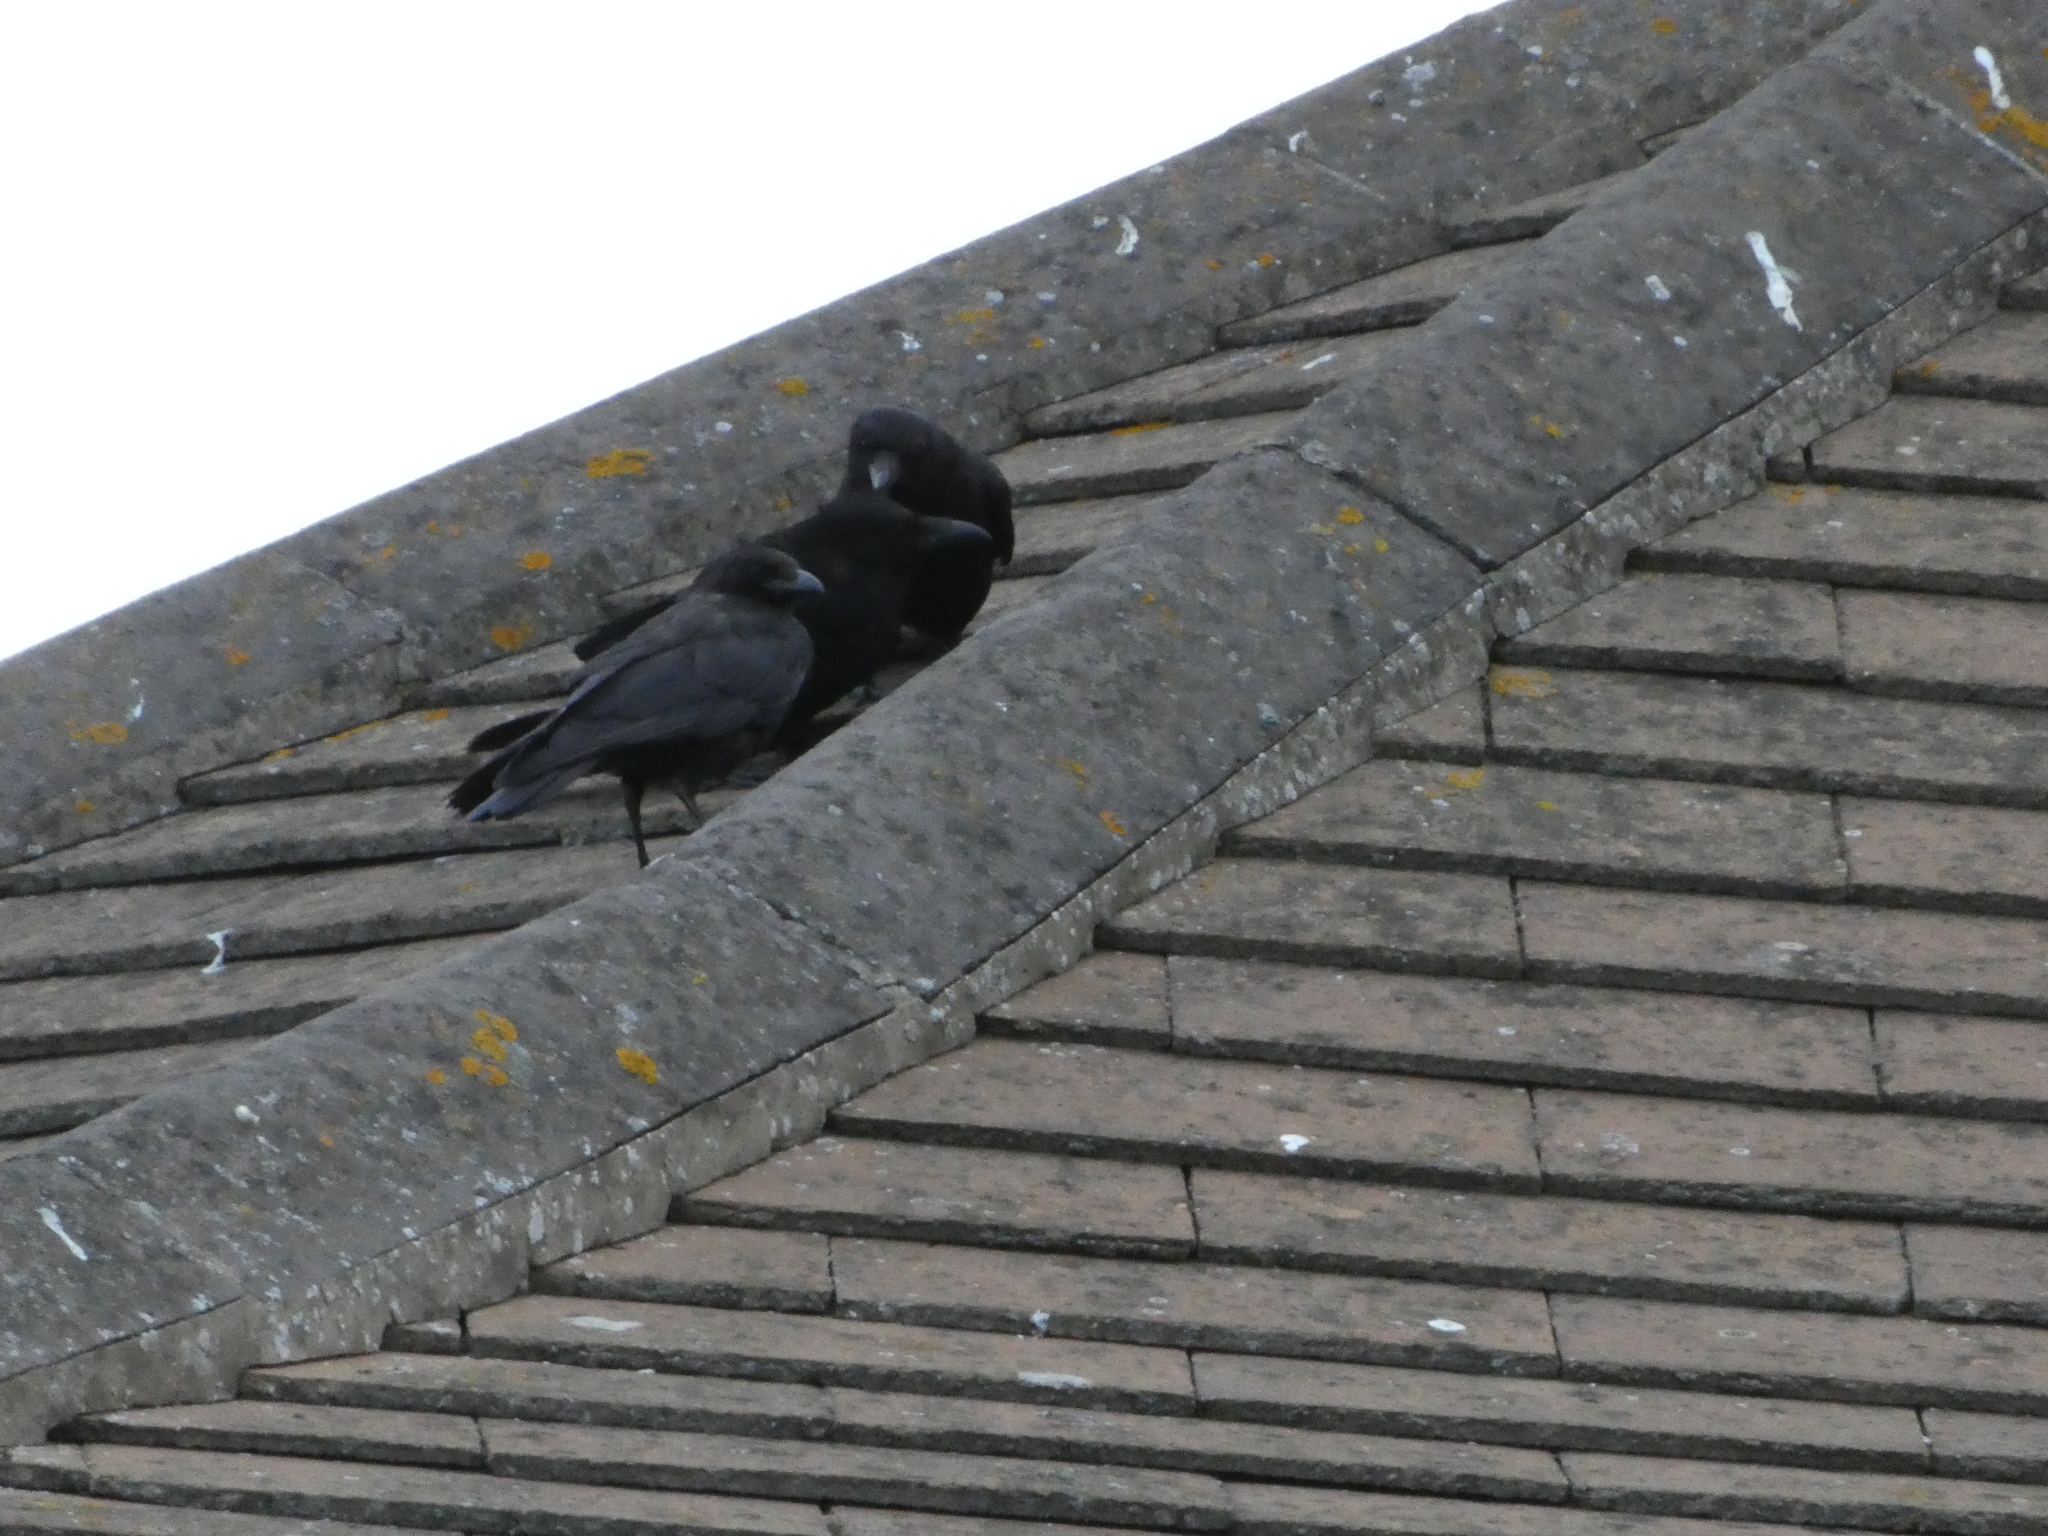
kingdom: Animalia
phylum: Chordata
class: Aves
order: Passeriformes
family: Corvidae
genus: Corvus
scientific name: Corvus corone
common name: Carrion crow
